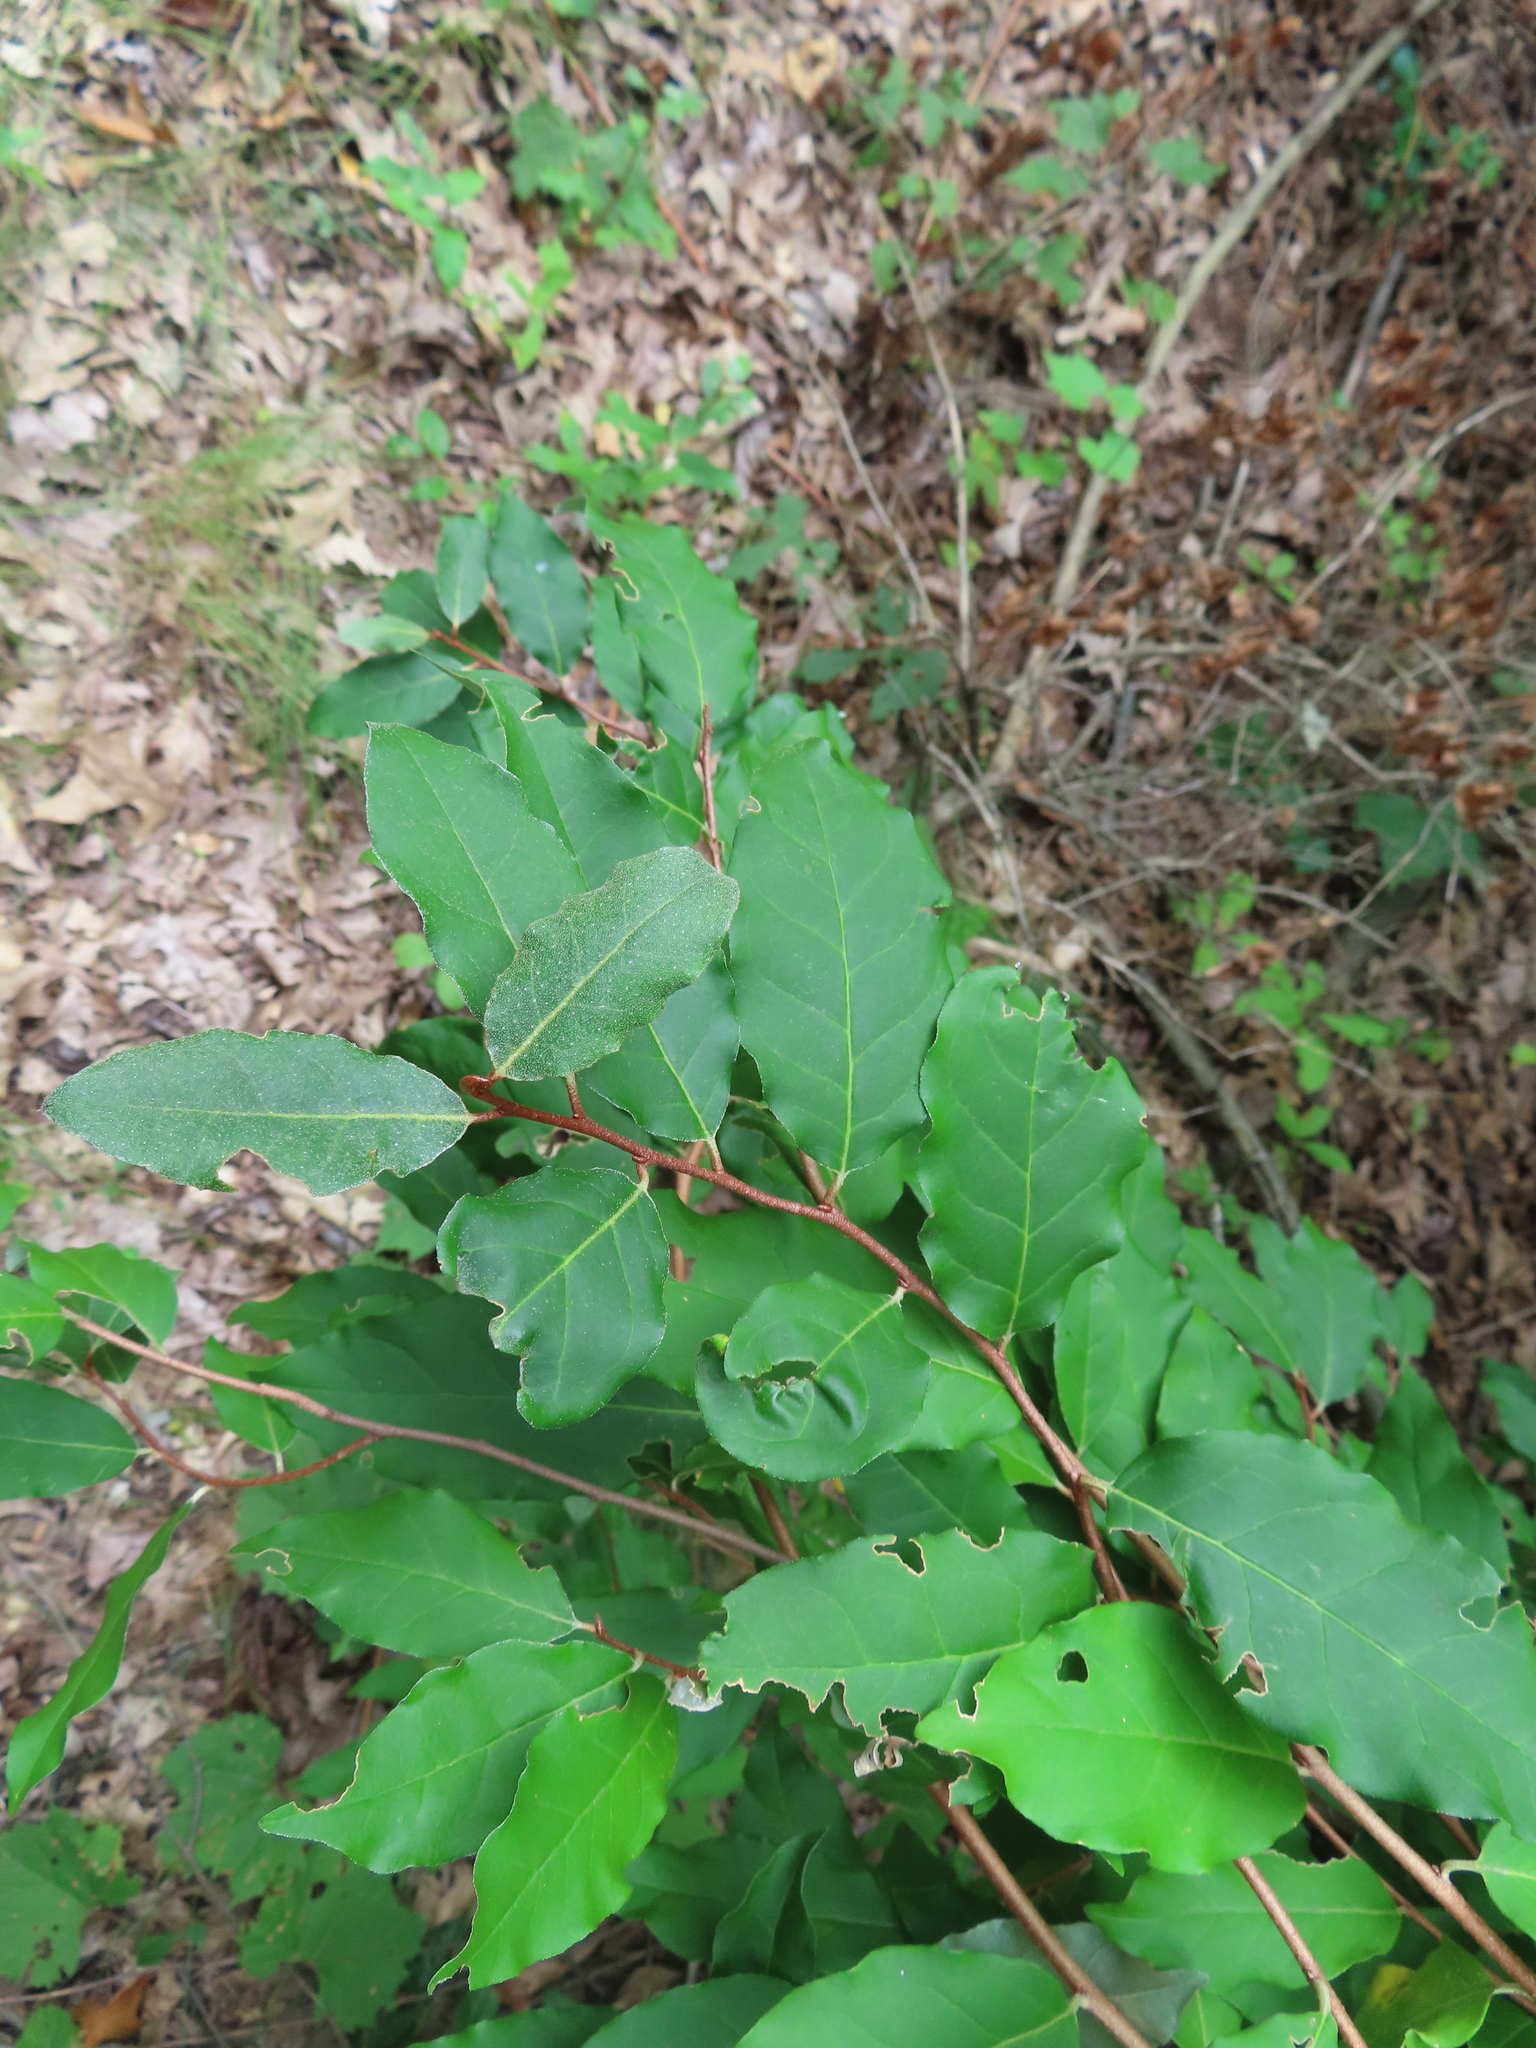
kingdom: Plantae
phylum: Tracheophyta
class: Magnoliopsida
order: Rosales
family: Elaeagnaceae
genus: Elaeagnus
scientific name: Elaeagnus umbellata
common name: Autumn olive
